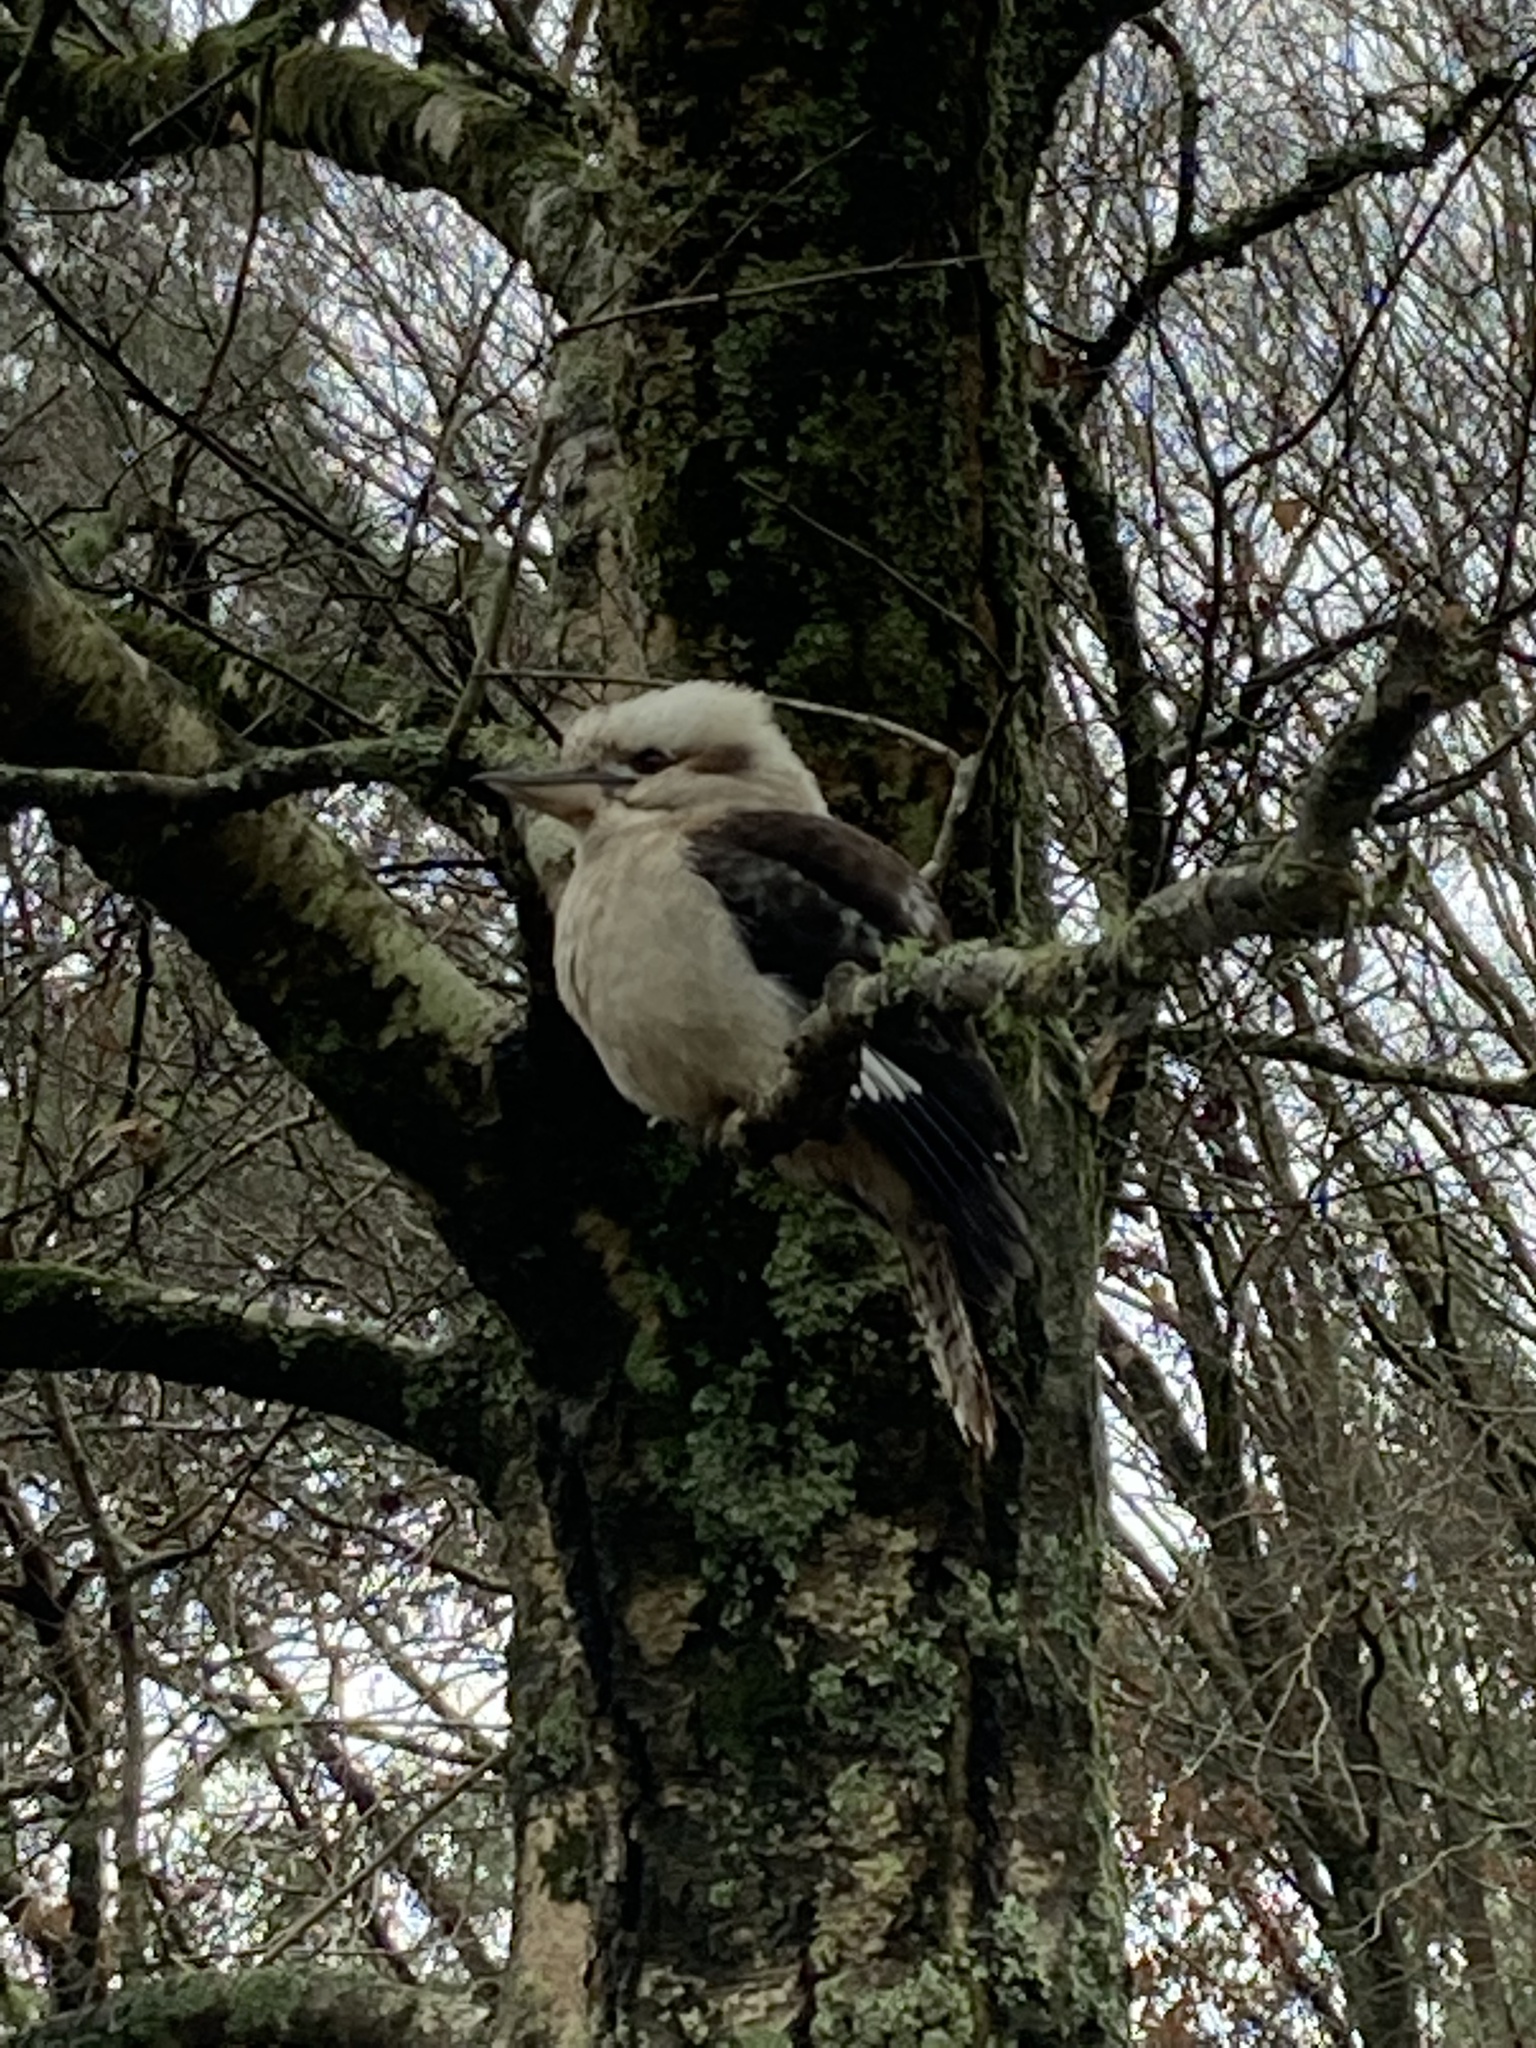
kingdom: Animalia
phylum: Chordata
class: Aves
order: Coraciiformes
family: Alcedinidae
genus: Dacelo
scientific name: Dacelo novaeguineae
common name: Laughing kookaburra
